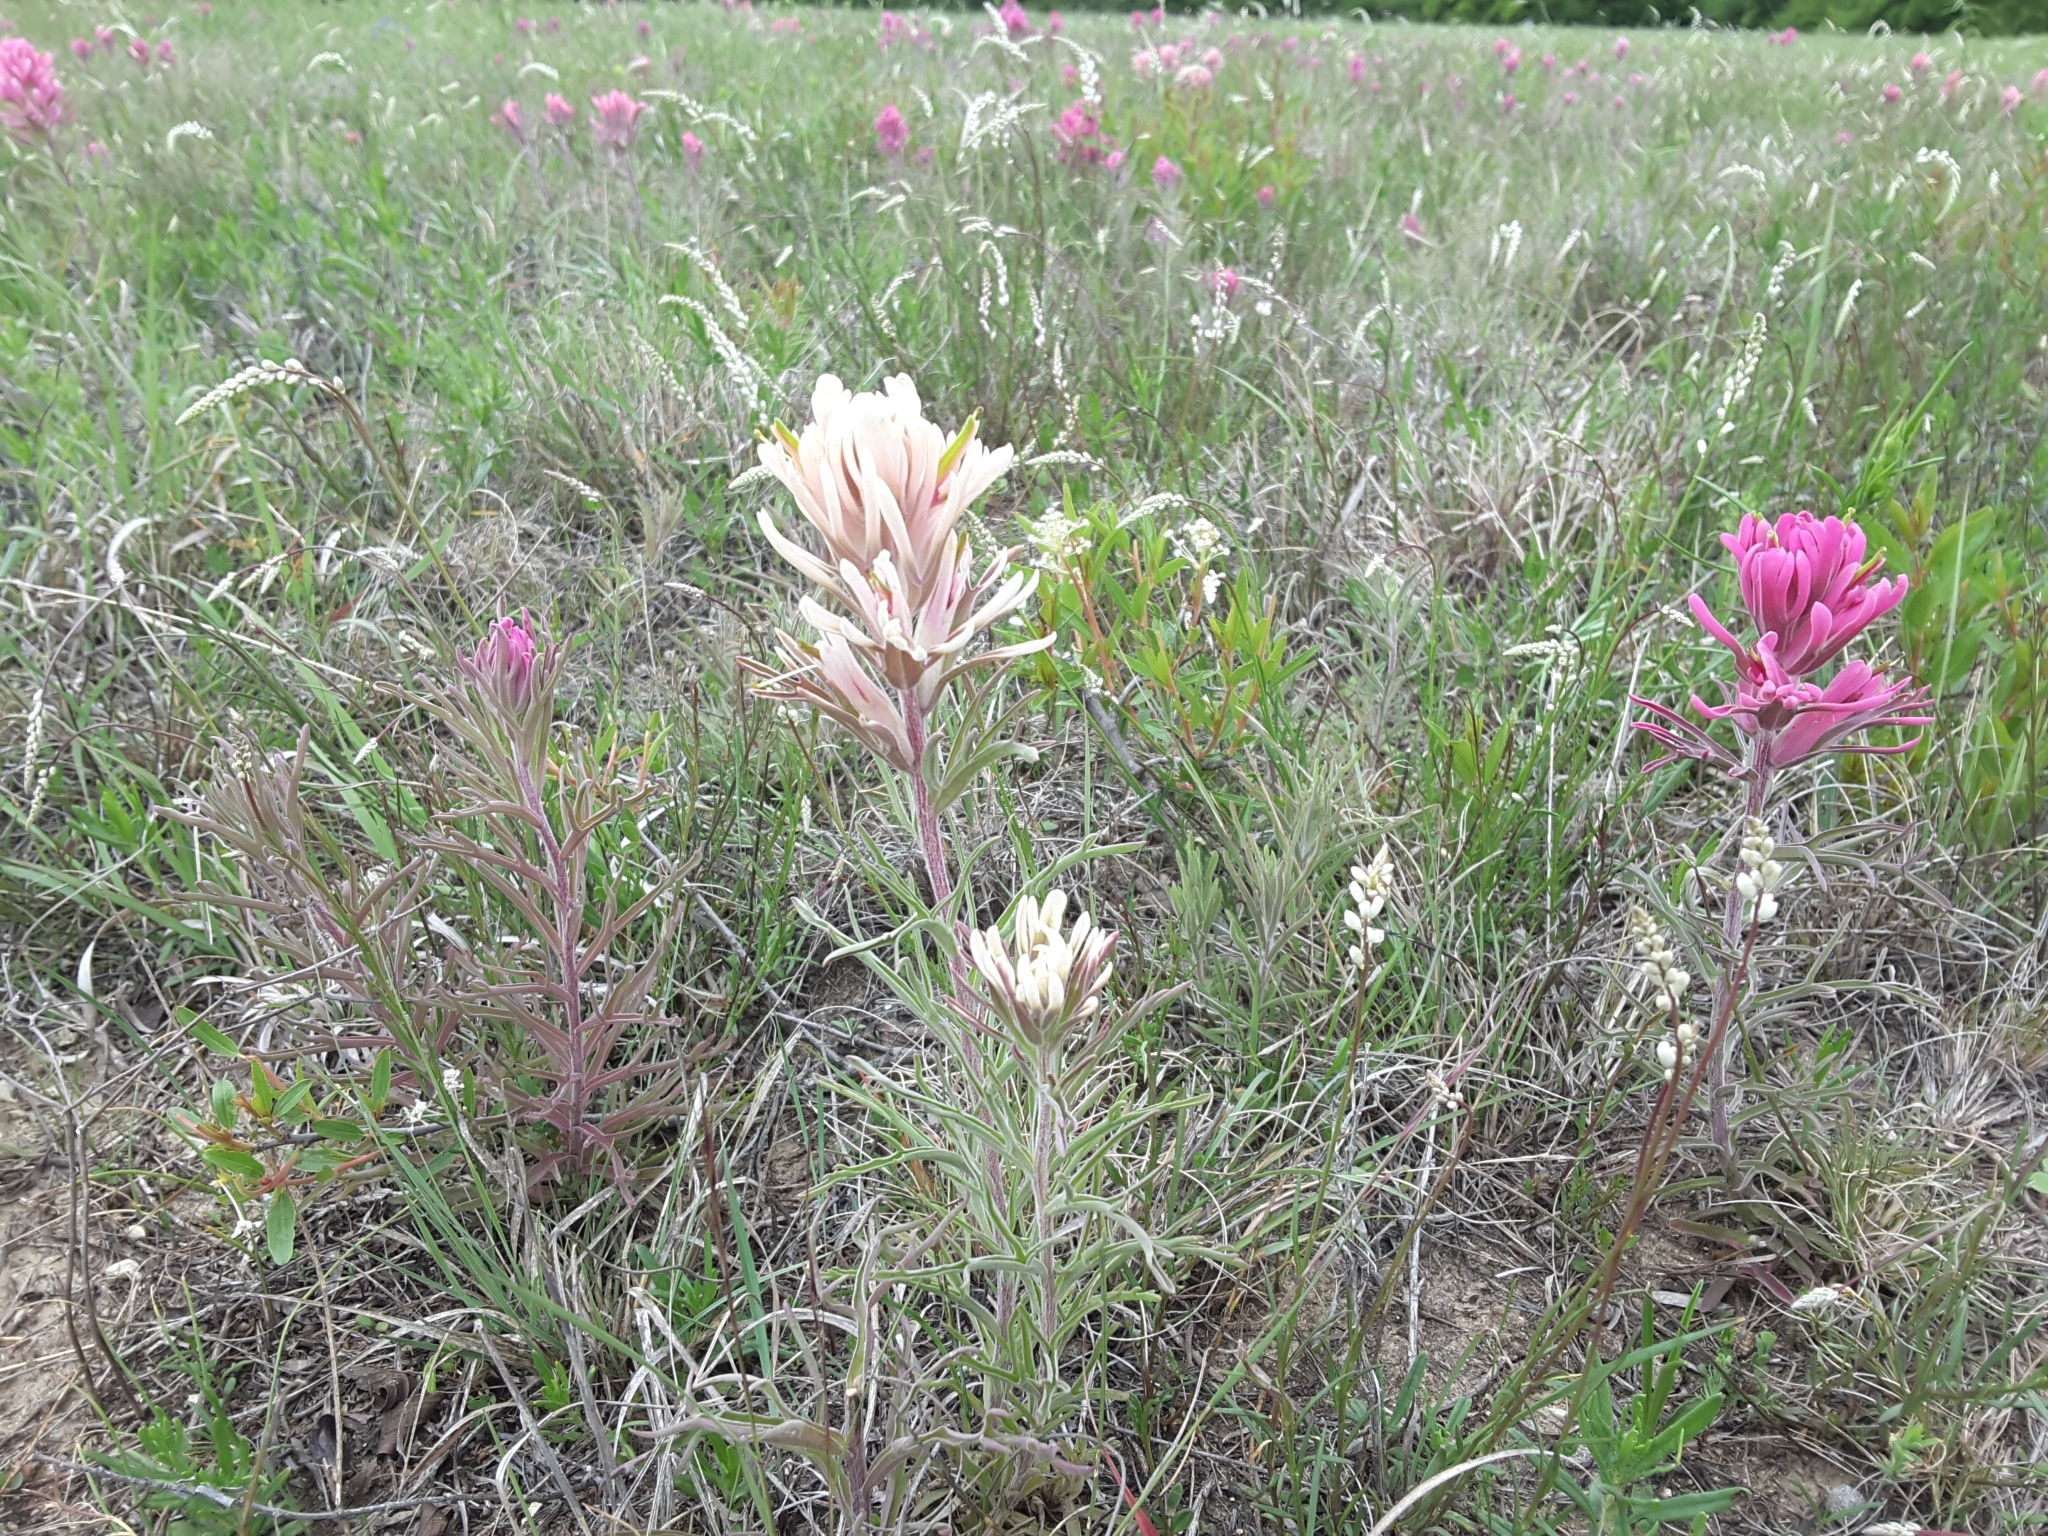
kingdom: Plantae
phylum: Tracheophyta
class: Magnoliopsida
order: Lamiales
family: Orobanchaceae
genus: Castilleja
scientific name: Castilleja purpurea
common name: Plains paintbrush
